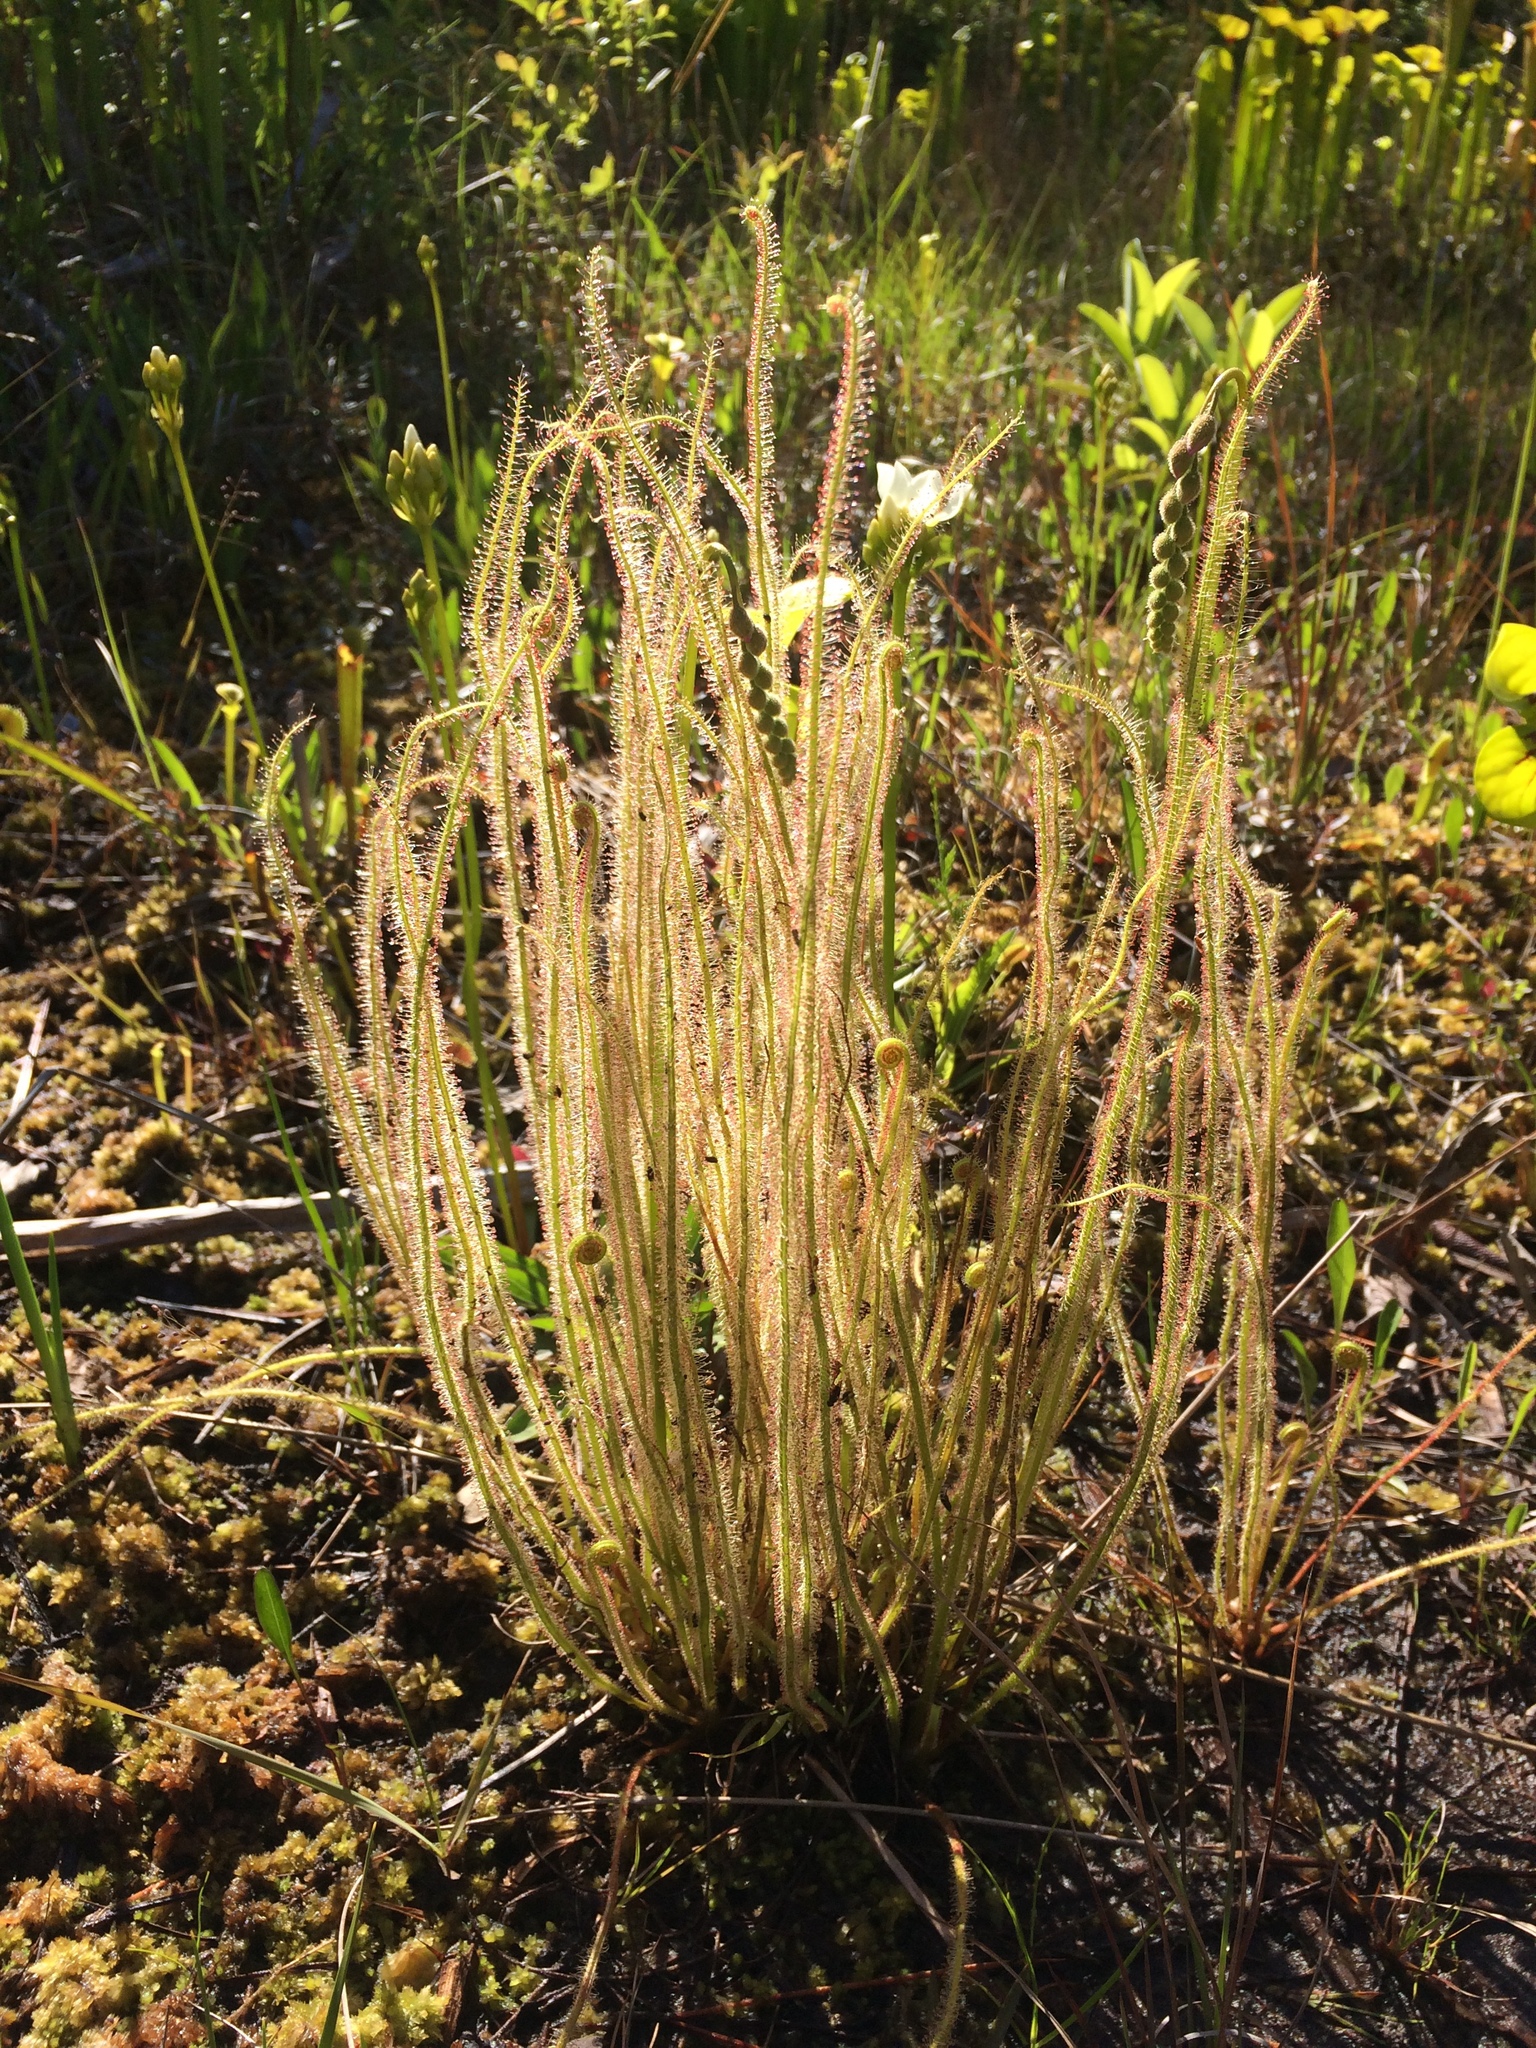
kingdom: Plantae
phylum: Tracheophyta
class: Magnoliopsida
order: Caryophyllales
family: Droseraceae
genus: Drosera
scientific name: Drosera filiformis
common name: Dew-thread
